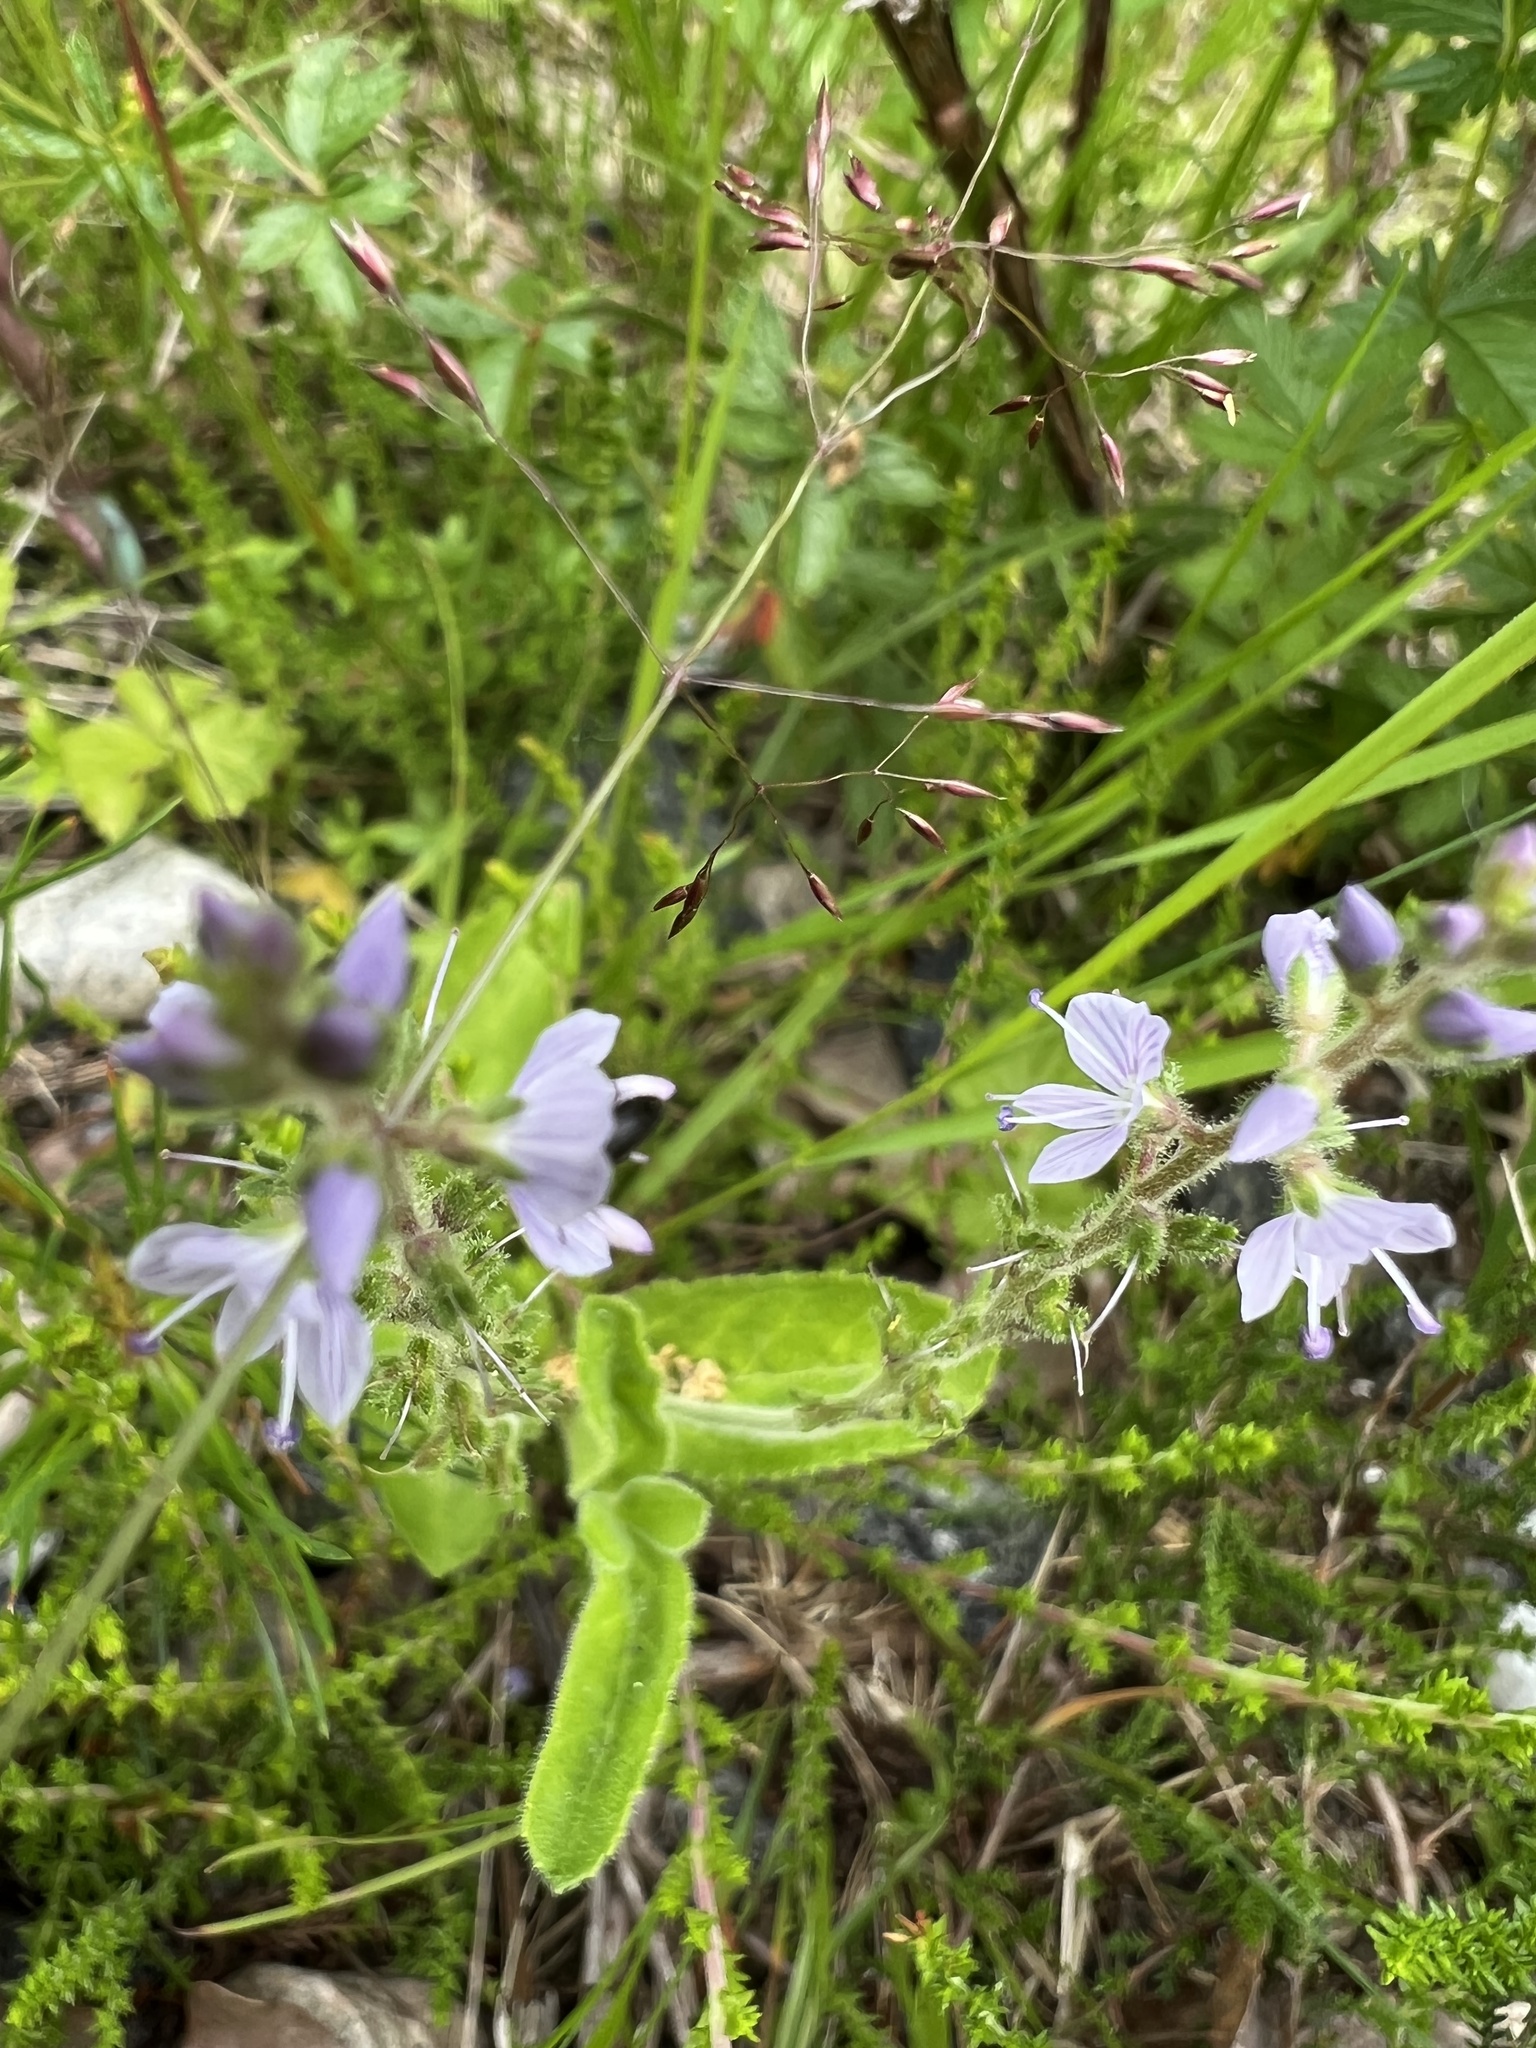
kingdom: Plantae
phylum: Tracheophyta
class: Magnoliopsida
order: Lamiales
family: Plantaginaceae
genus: Veronica
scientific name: Veronica officinalis
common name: Common speedwell
